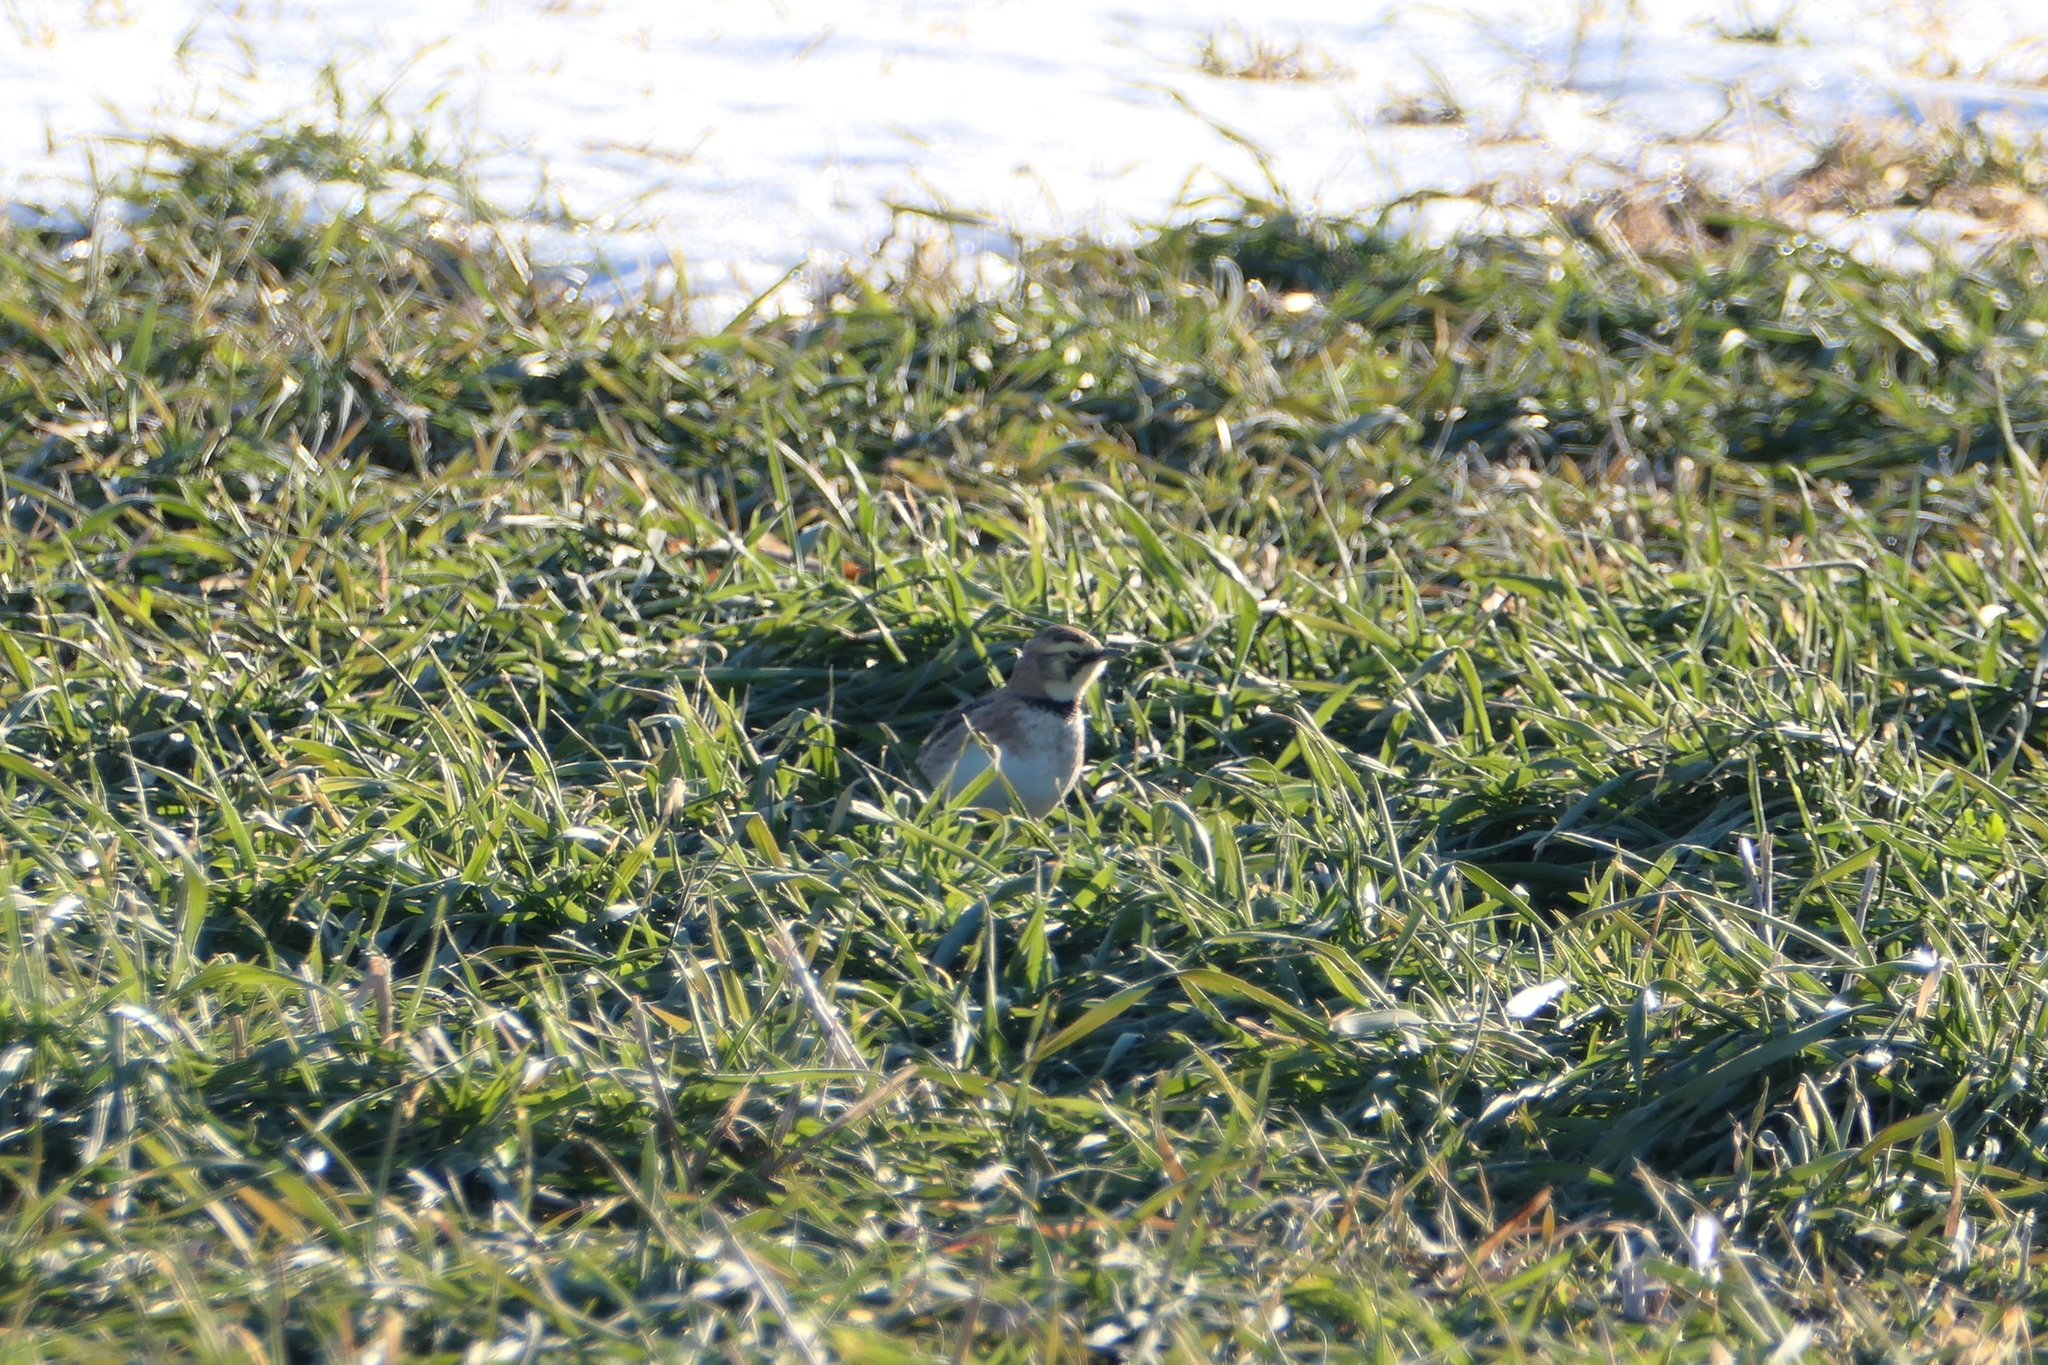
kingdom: Animalia
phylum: Chordata
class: Aves
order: Passeriformes
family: Alaudidae
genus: Eremophila
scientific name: Eremophila alpestris
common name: Horned lark
